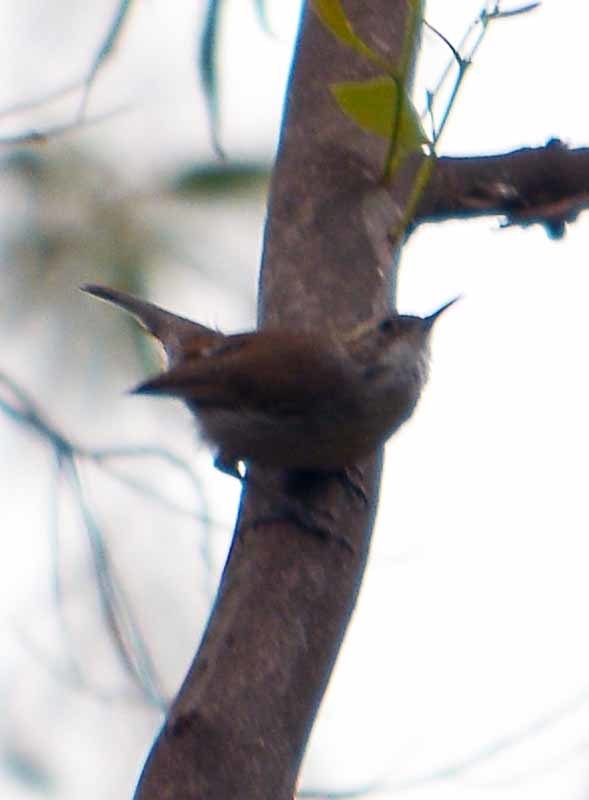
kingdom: Animalia
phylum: Chordata
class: Aves
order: Passeriformes
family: Troglodytidae
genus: Thryomanes
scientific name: Thryomanes bewickii
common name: Bewick's wren
